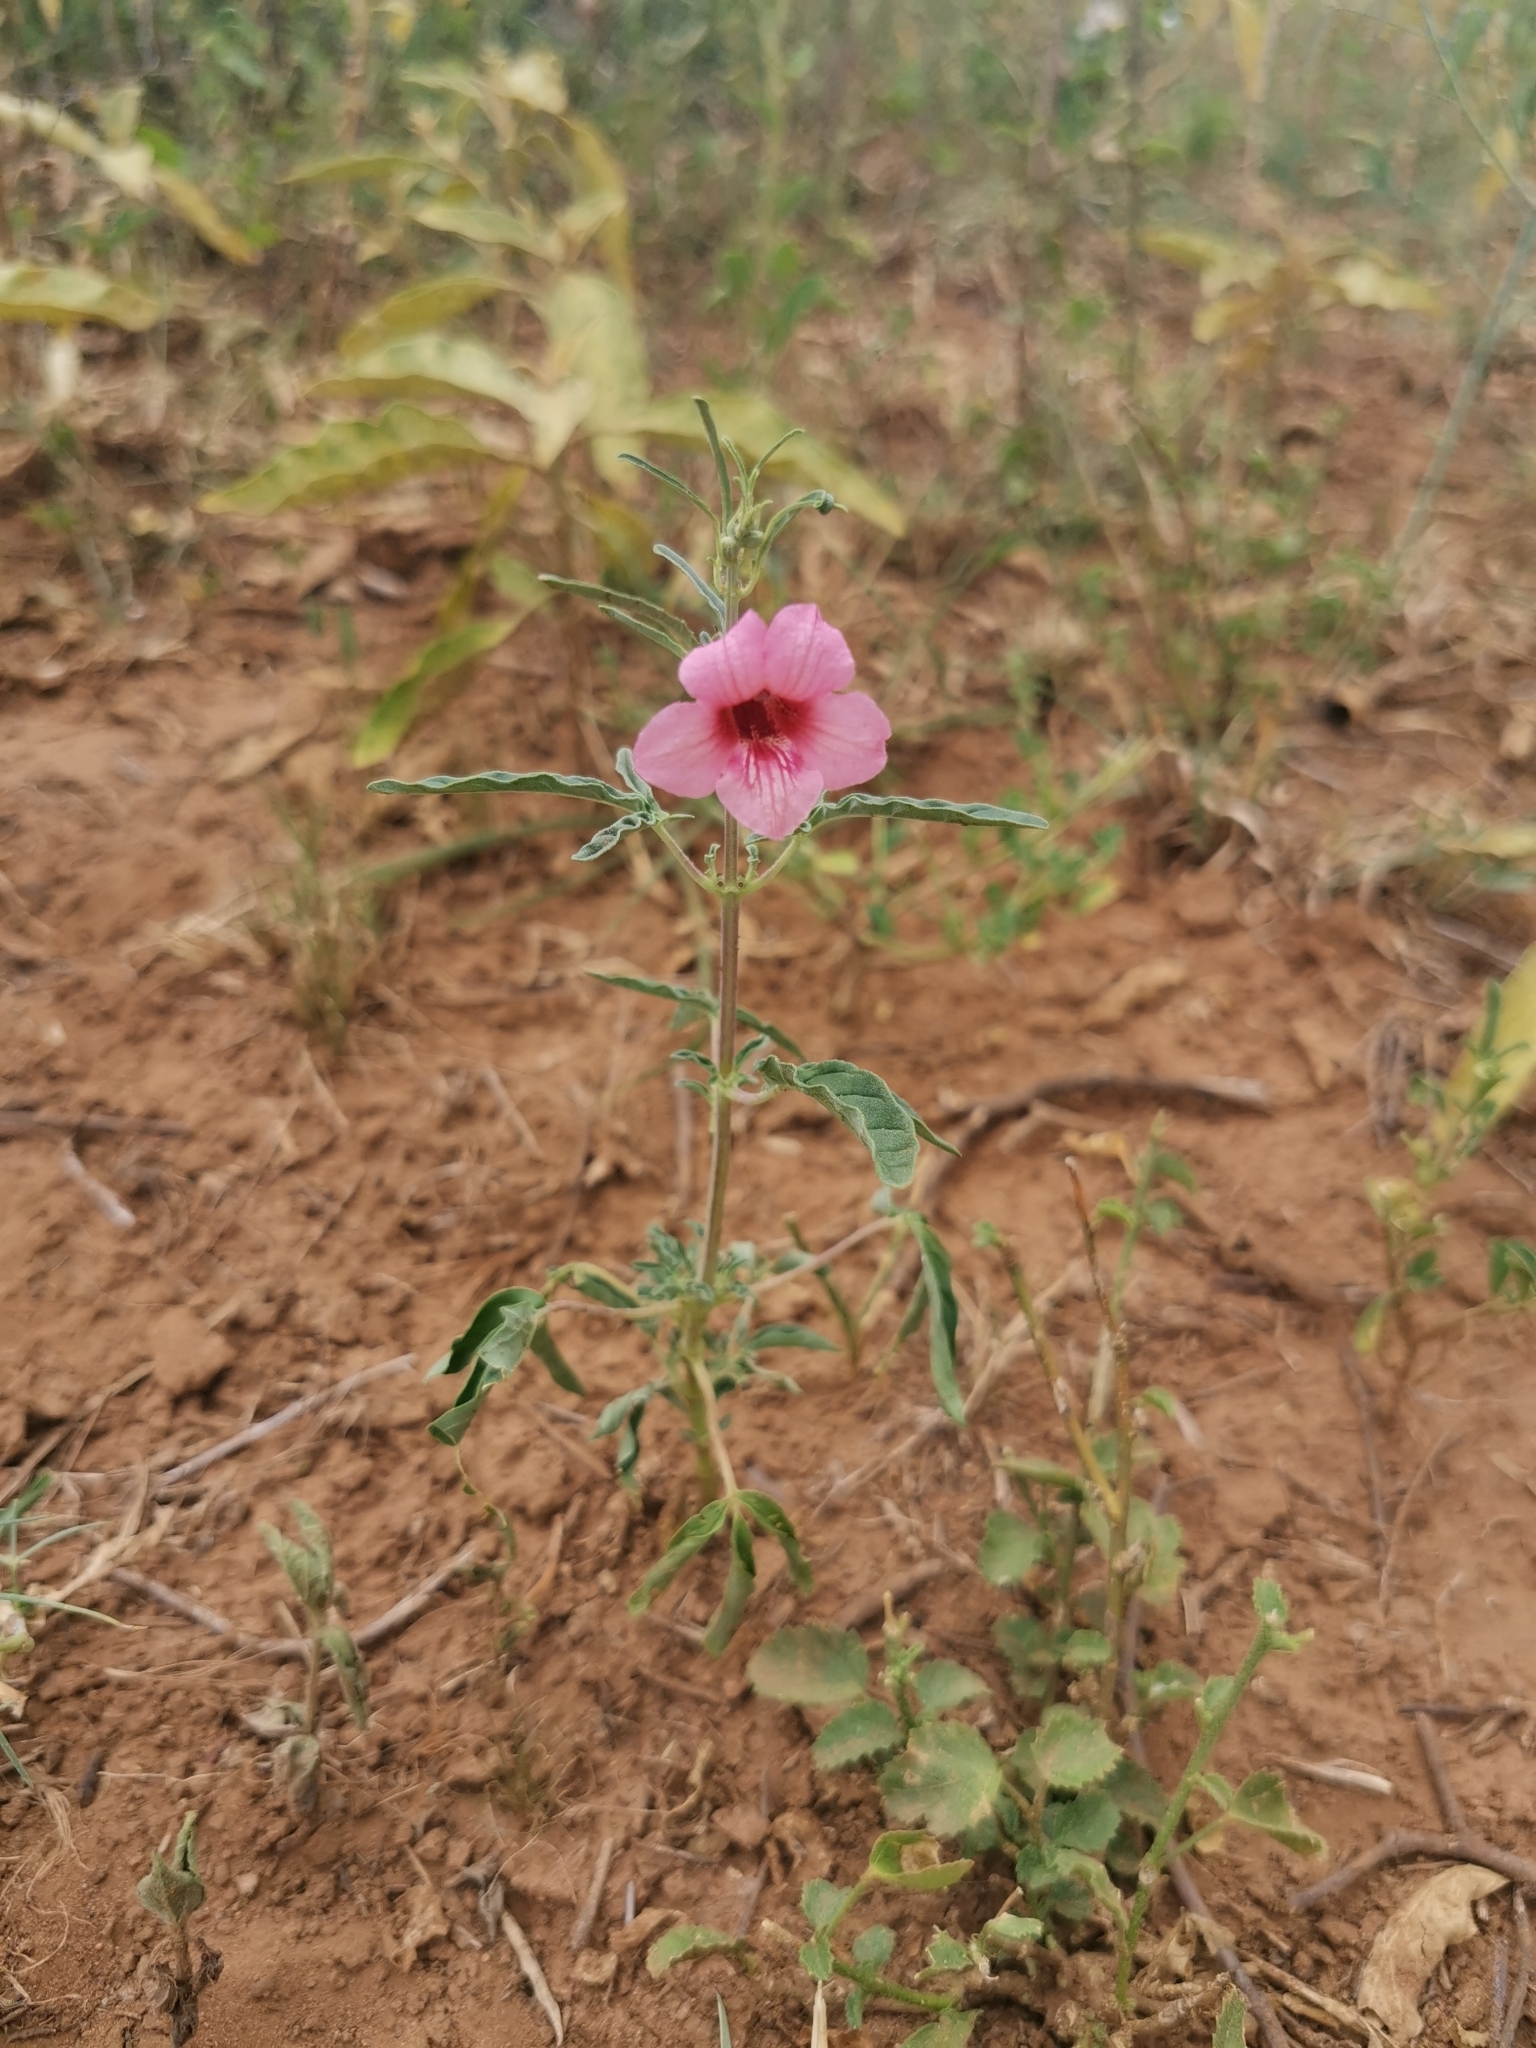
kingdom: Plantae
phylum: Tracheophyta
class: Magnoliopsida
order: Lamiales
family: Pedaliaceae
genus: Sesamum
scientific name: Sesamum triphyllum
